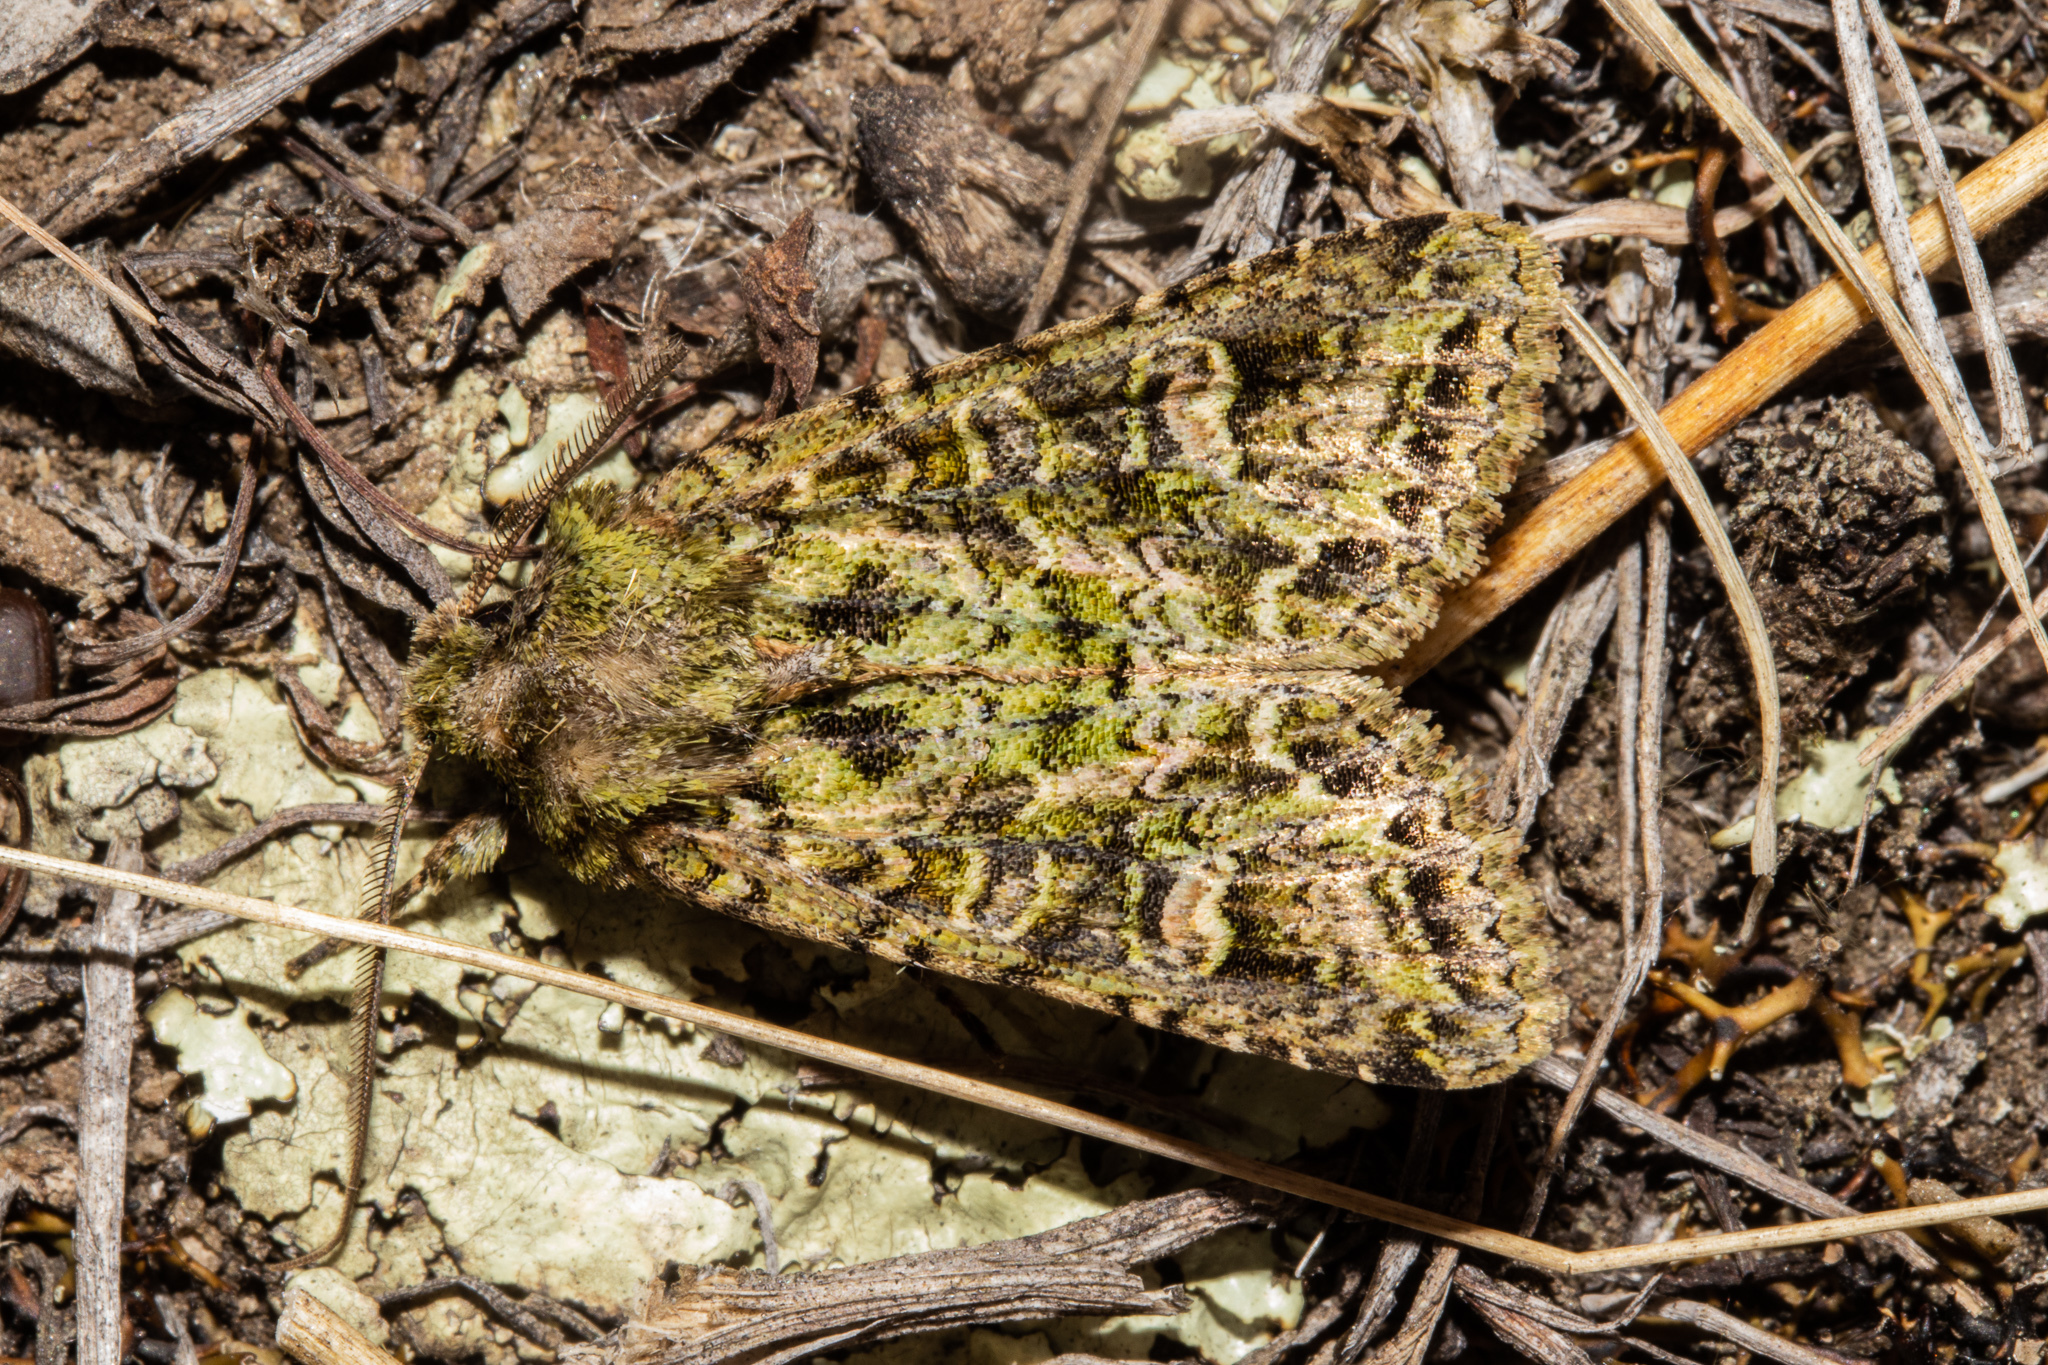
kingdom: Animalia
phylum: Arthropoda
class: Insecta
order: Lepidoptera
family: Noctuidae
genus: Ichneutica
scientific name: Ichneutica
